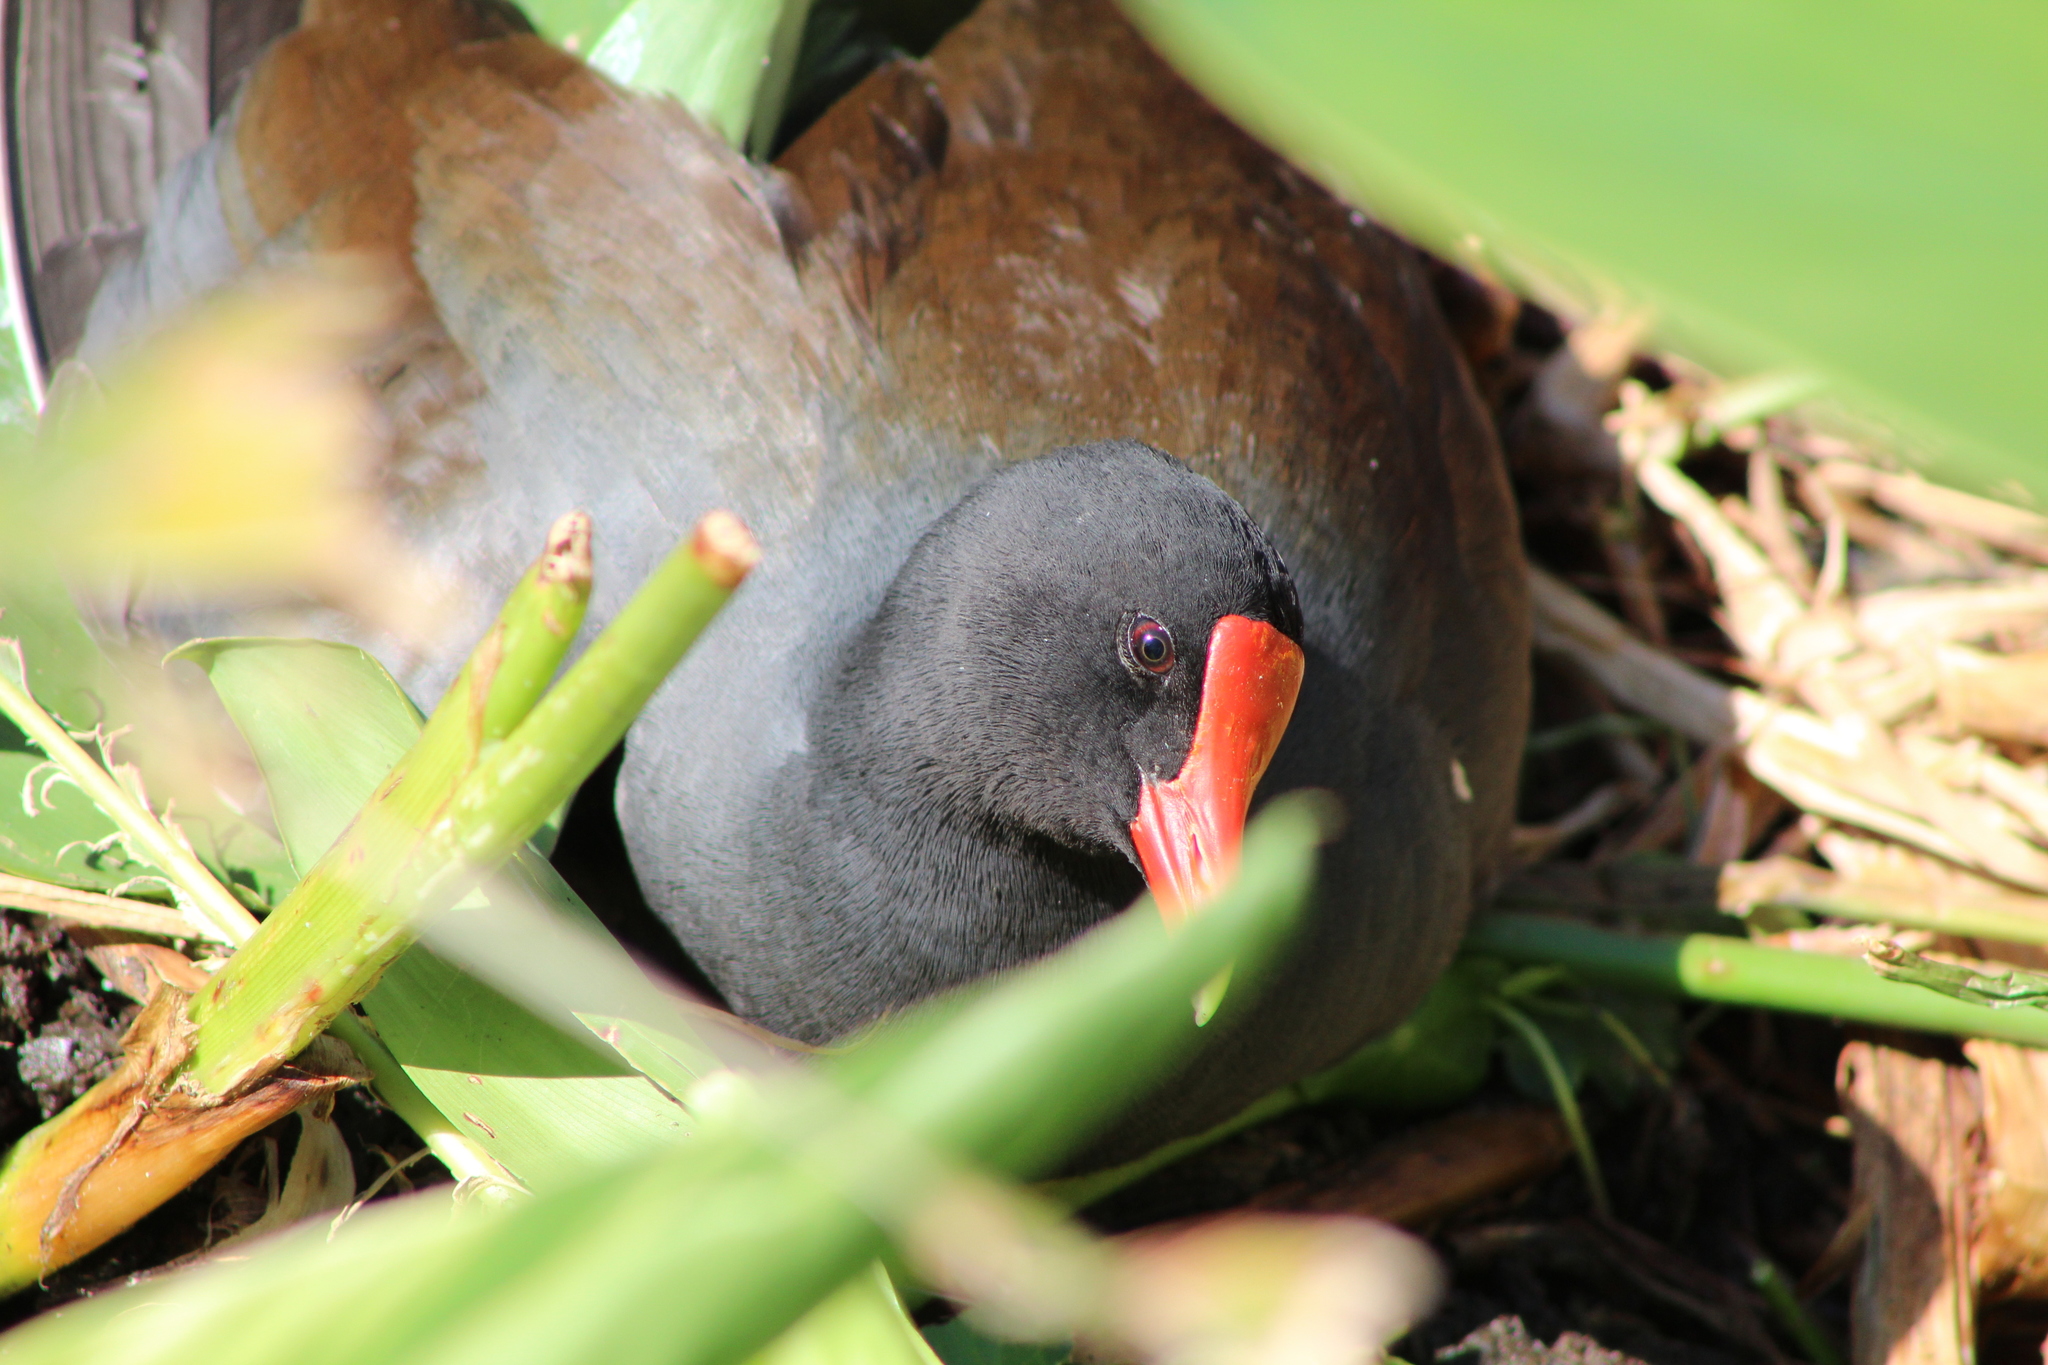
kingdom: Animalia
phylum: Chordata
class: Aves
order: Gruiformes
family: Rallidae
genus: Gallinula
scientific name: Gallinula chloropus
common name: Common moorhen
